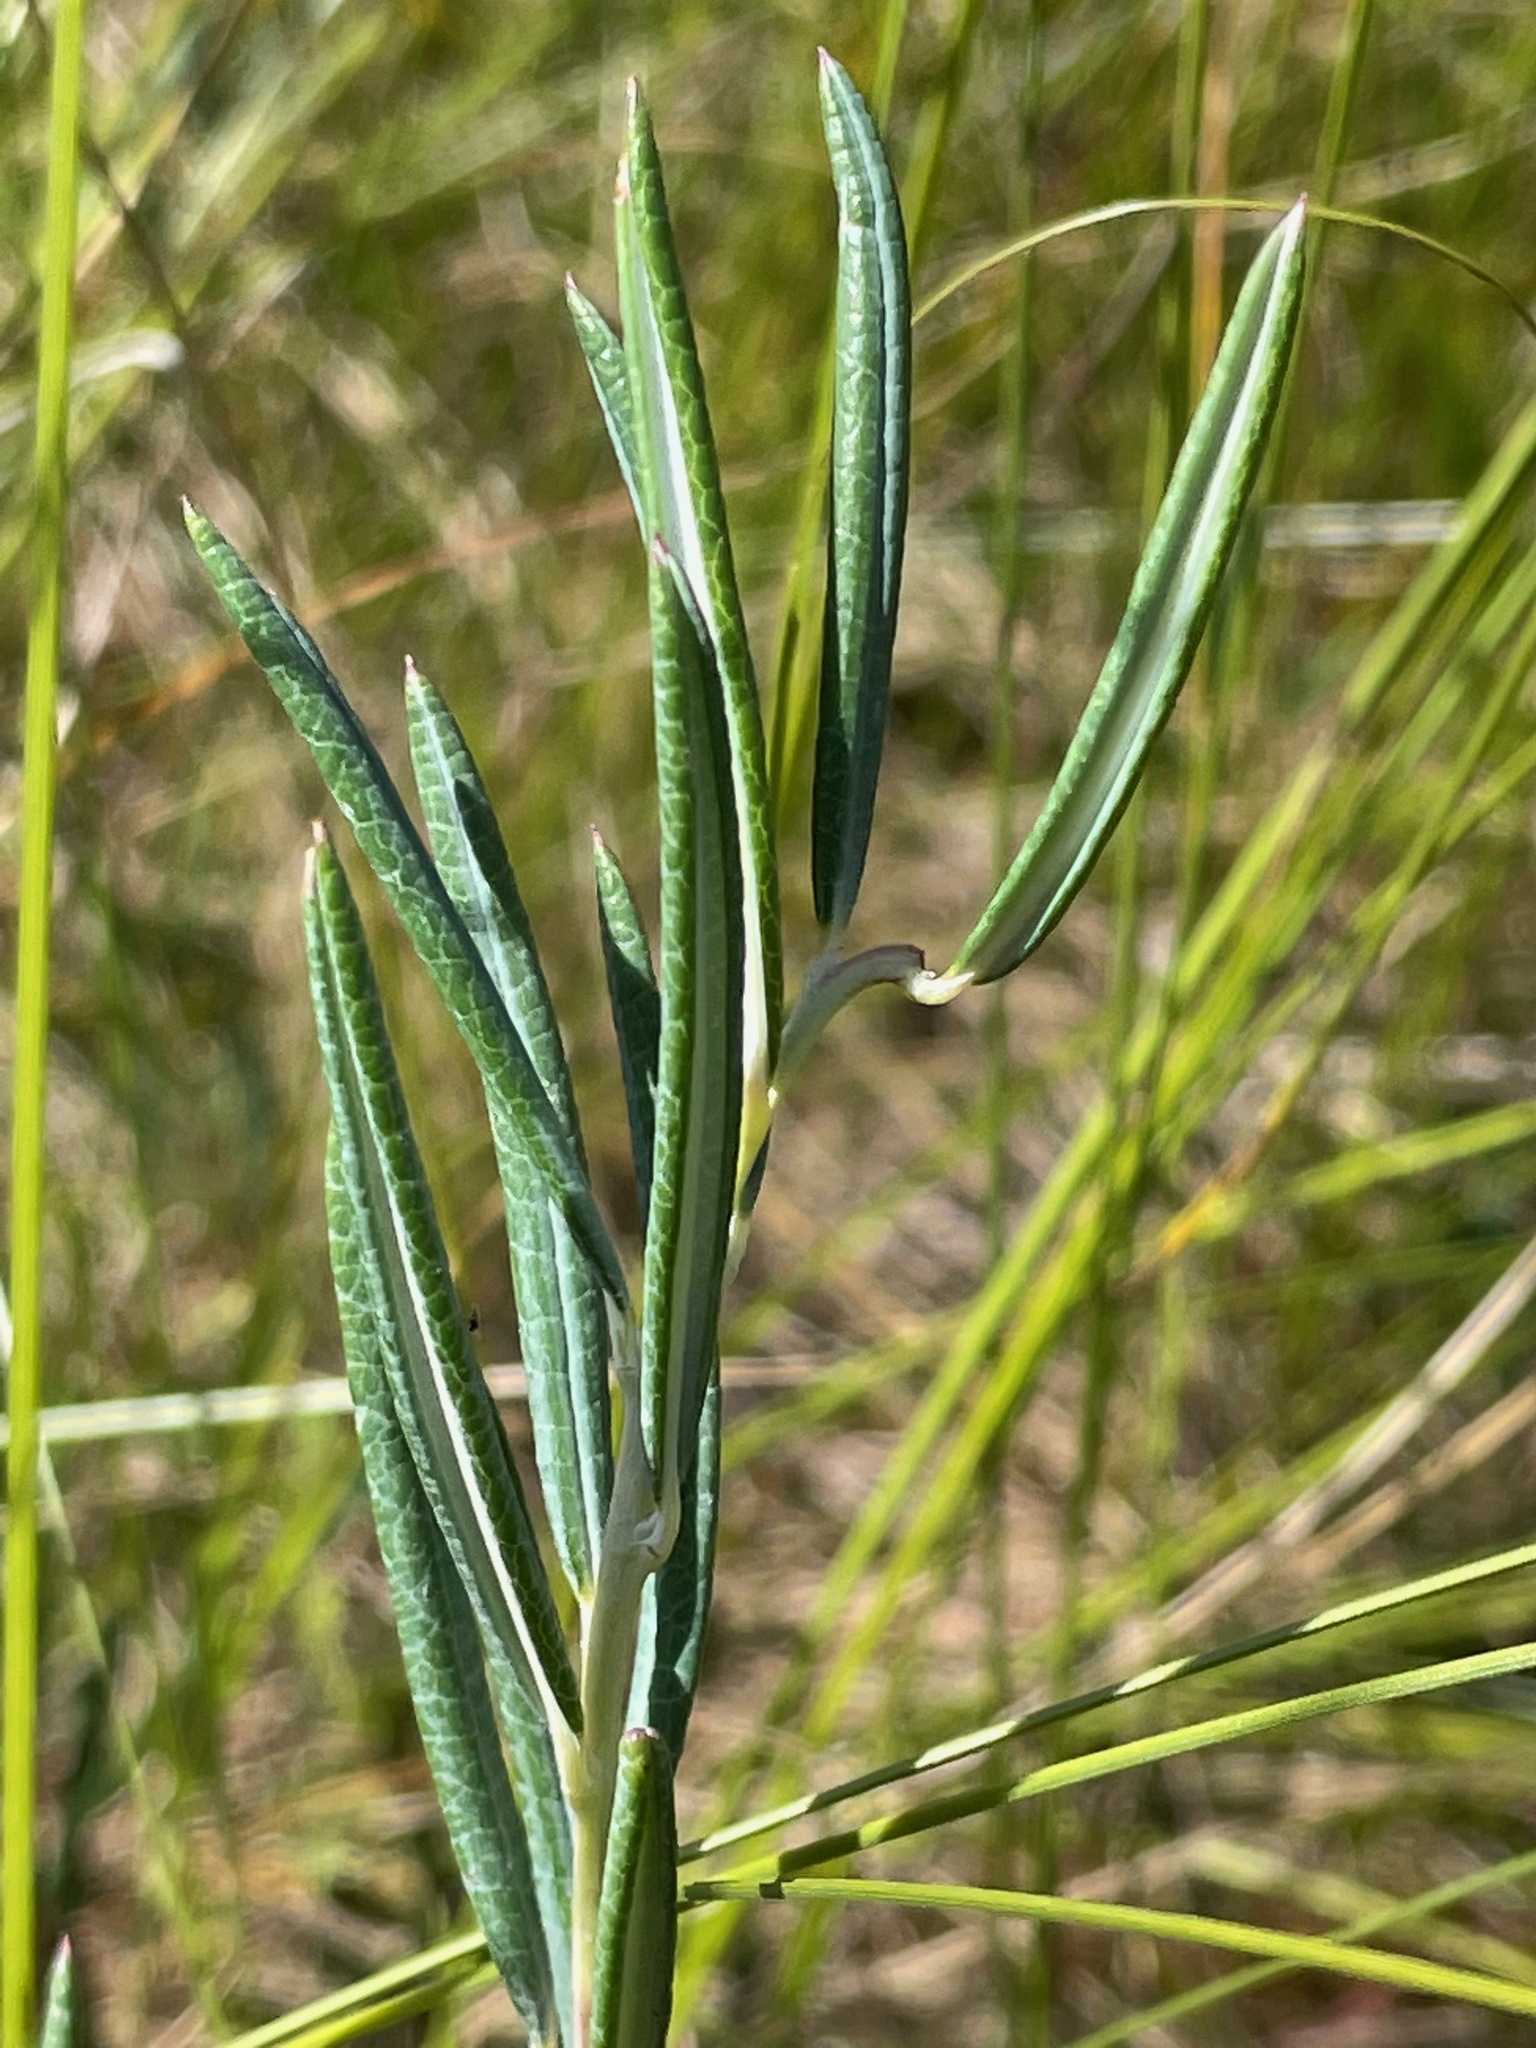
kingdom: Plantae
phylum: Tracheophyta
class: Magnoliopsida
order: Ericales
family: Ericaceae
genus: Andromeda
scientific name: Andromeda polifolia
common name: Bog-rosemary
